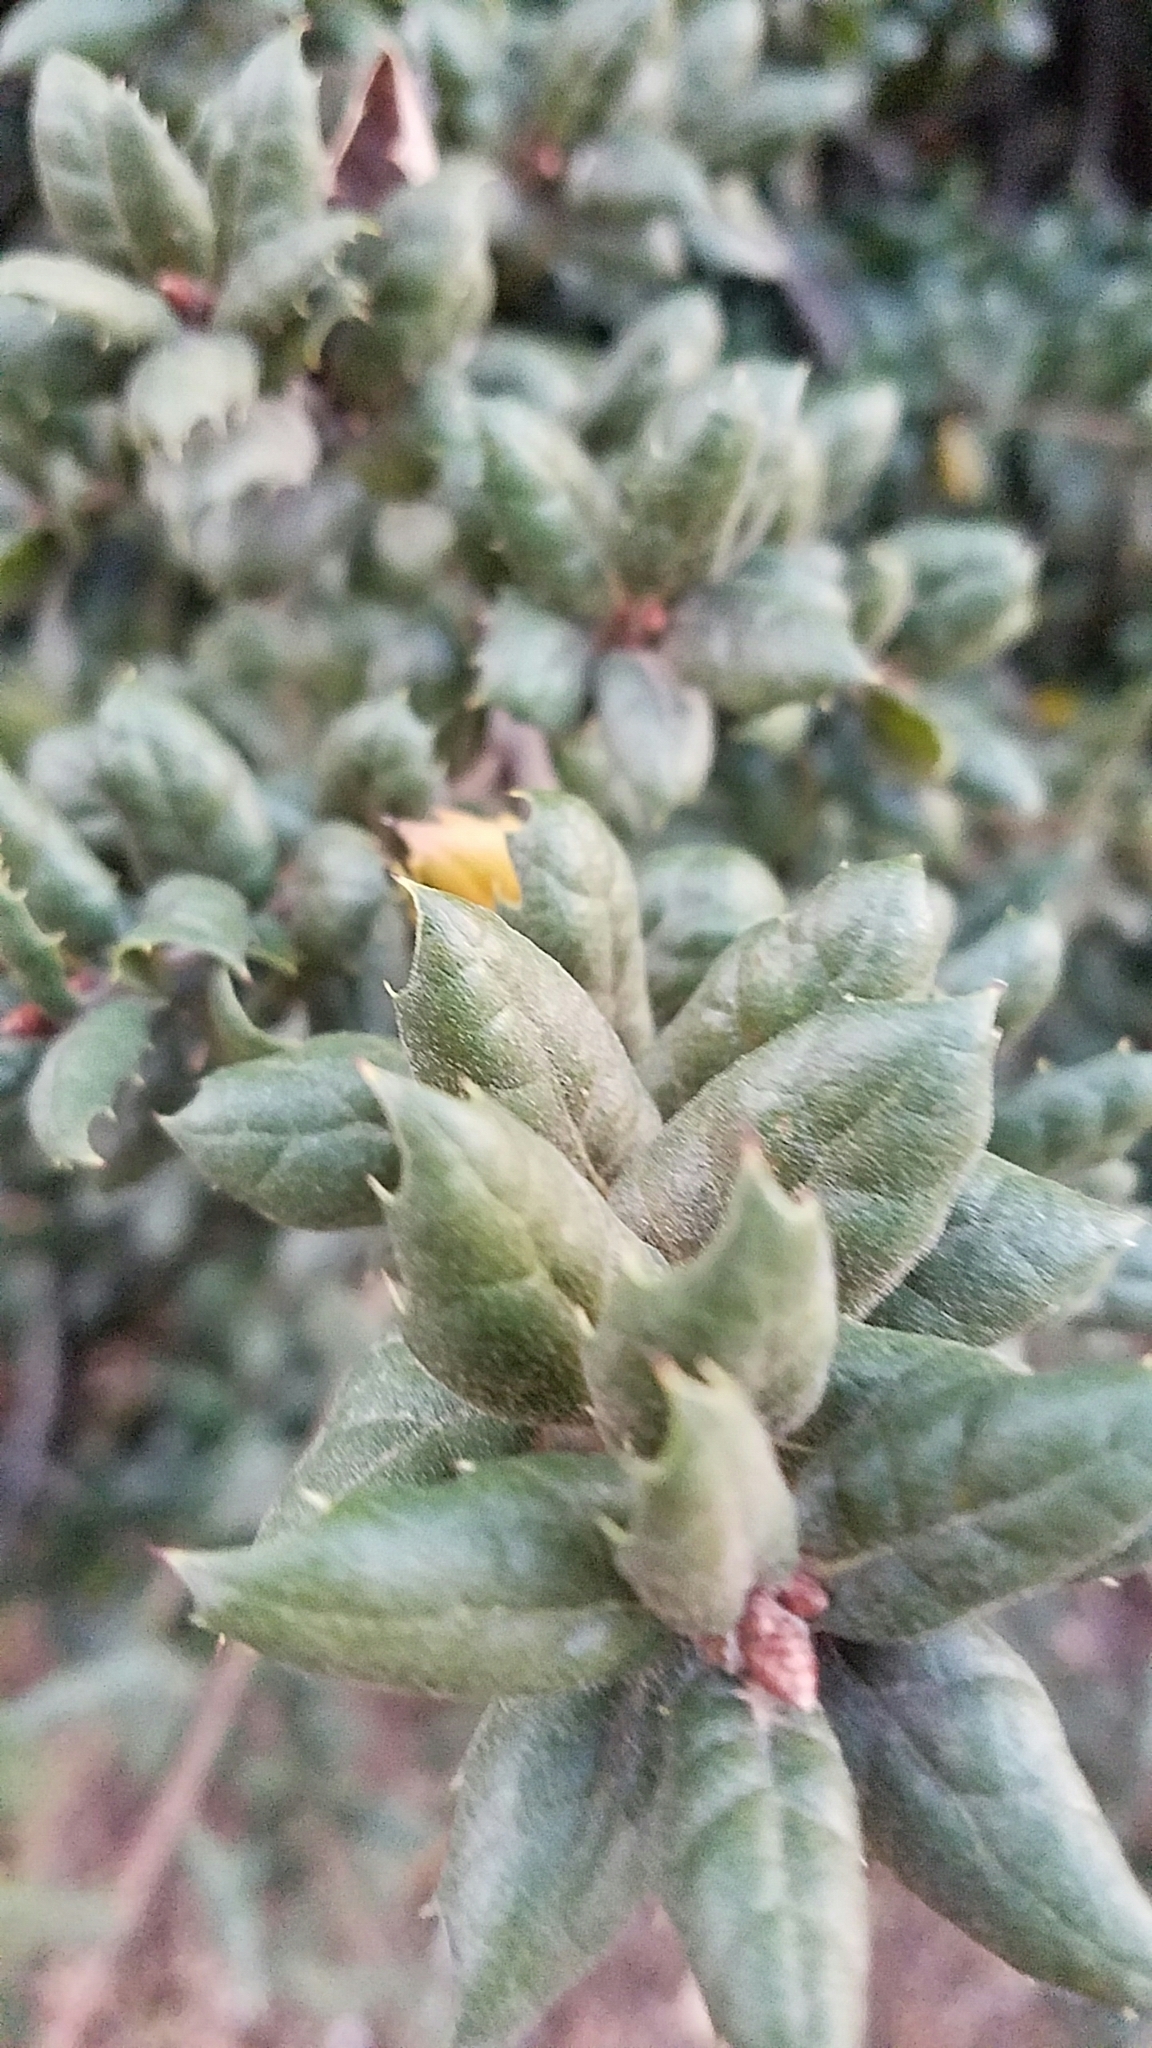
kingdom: Plantae
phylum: Tracheophyta
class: Magnoliopsida
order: Fagales
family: Fagaceae
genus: Quercus
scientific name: Quercus agrifolia
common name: California live oak
